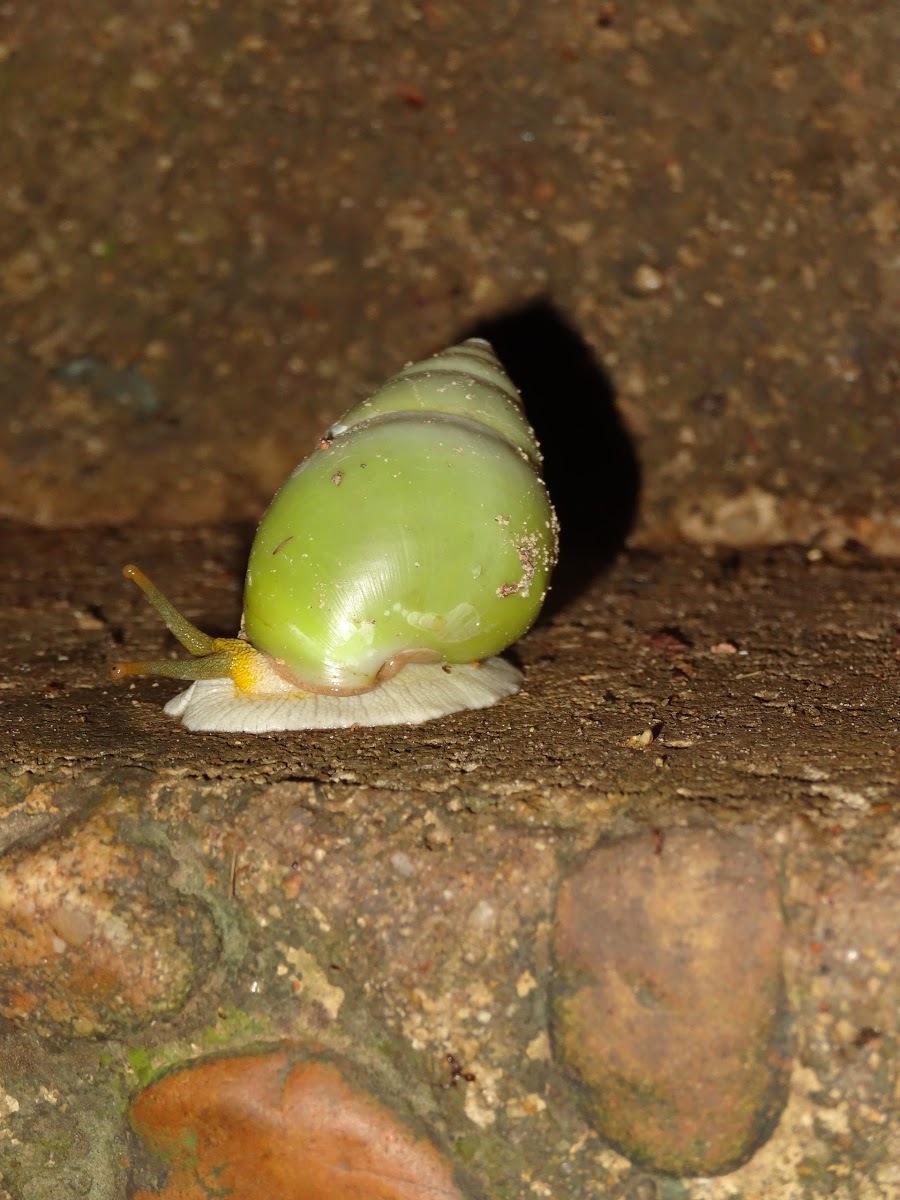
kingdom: Animalia
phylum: Mollusca
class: Gastropoda
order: Stylommatophora
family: Camaenidae
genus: Amphidromus
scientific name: Amphidromus atricallosus
